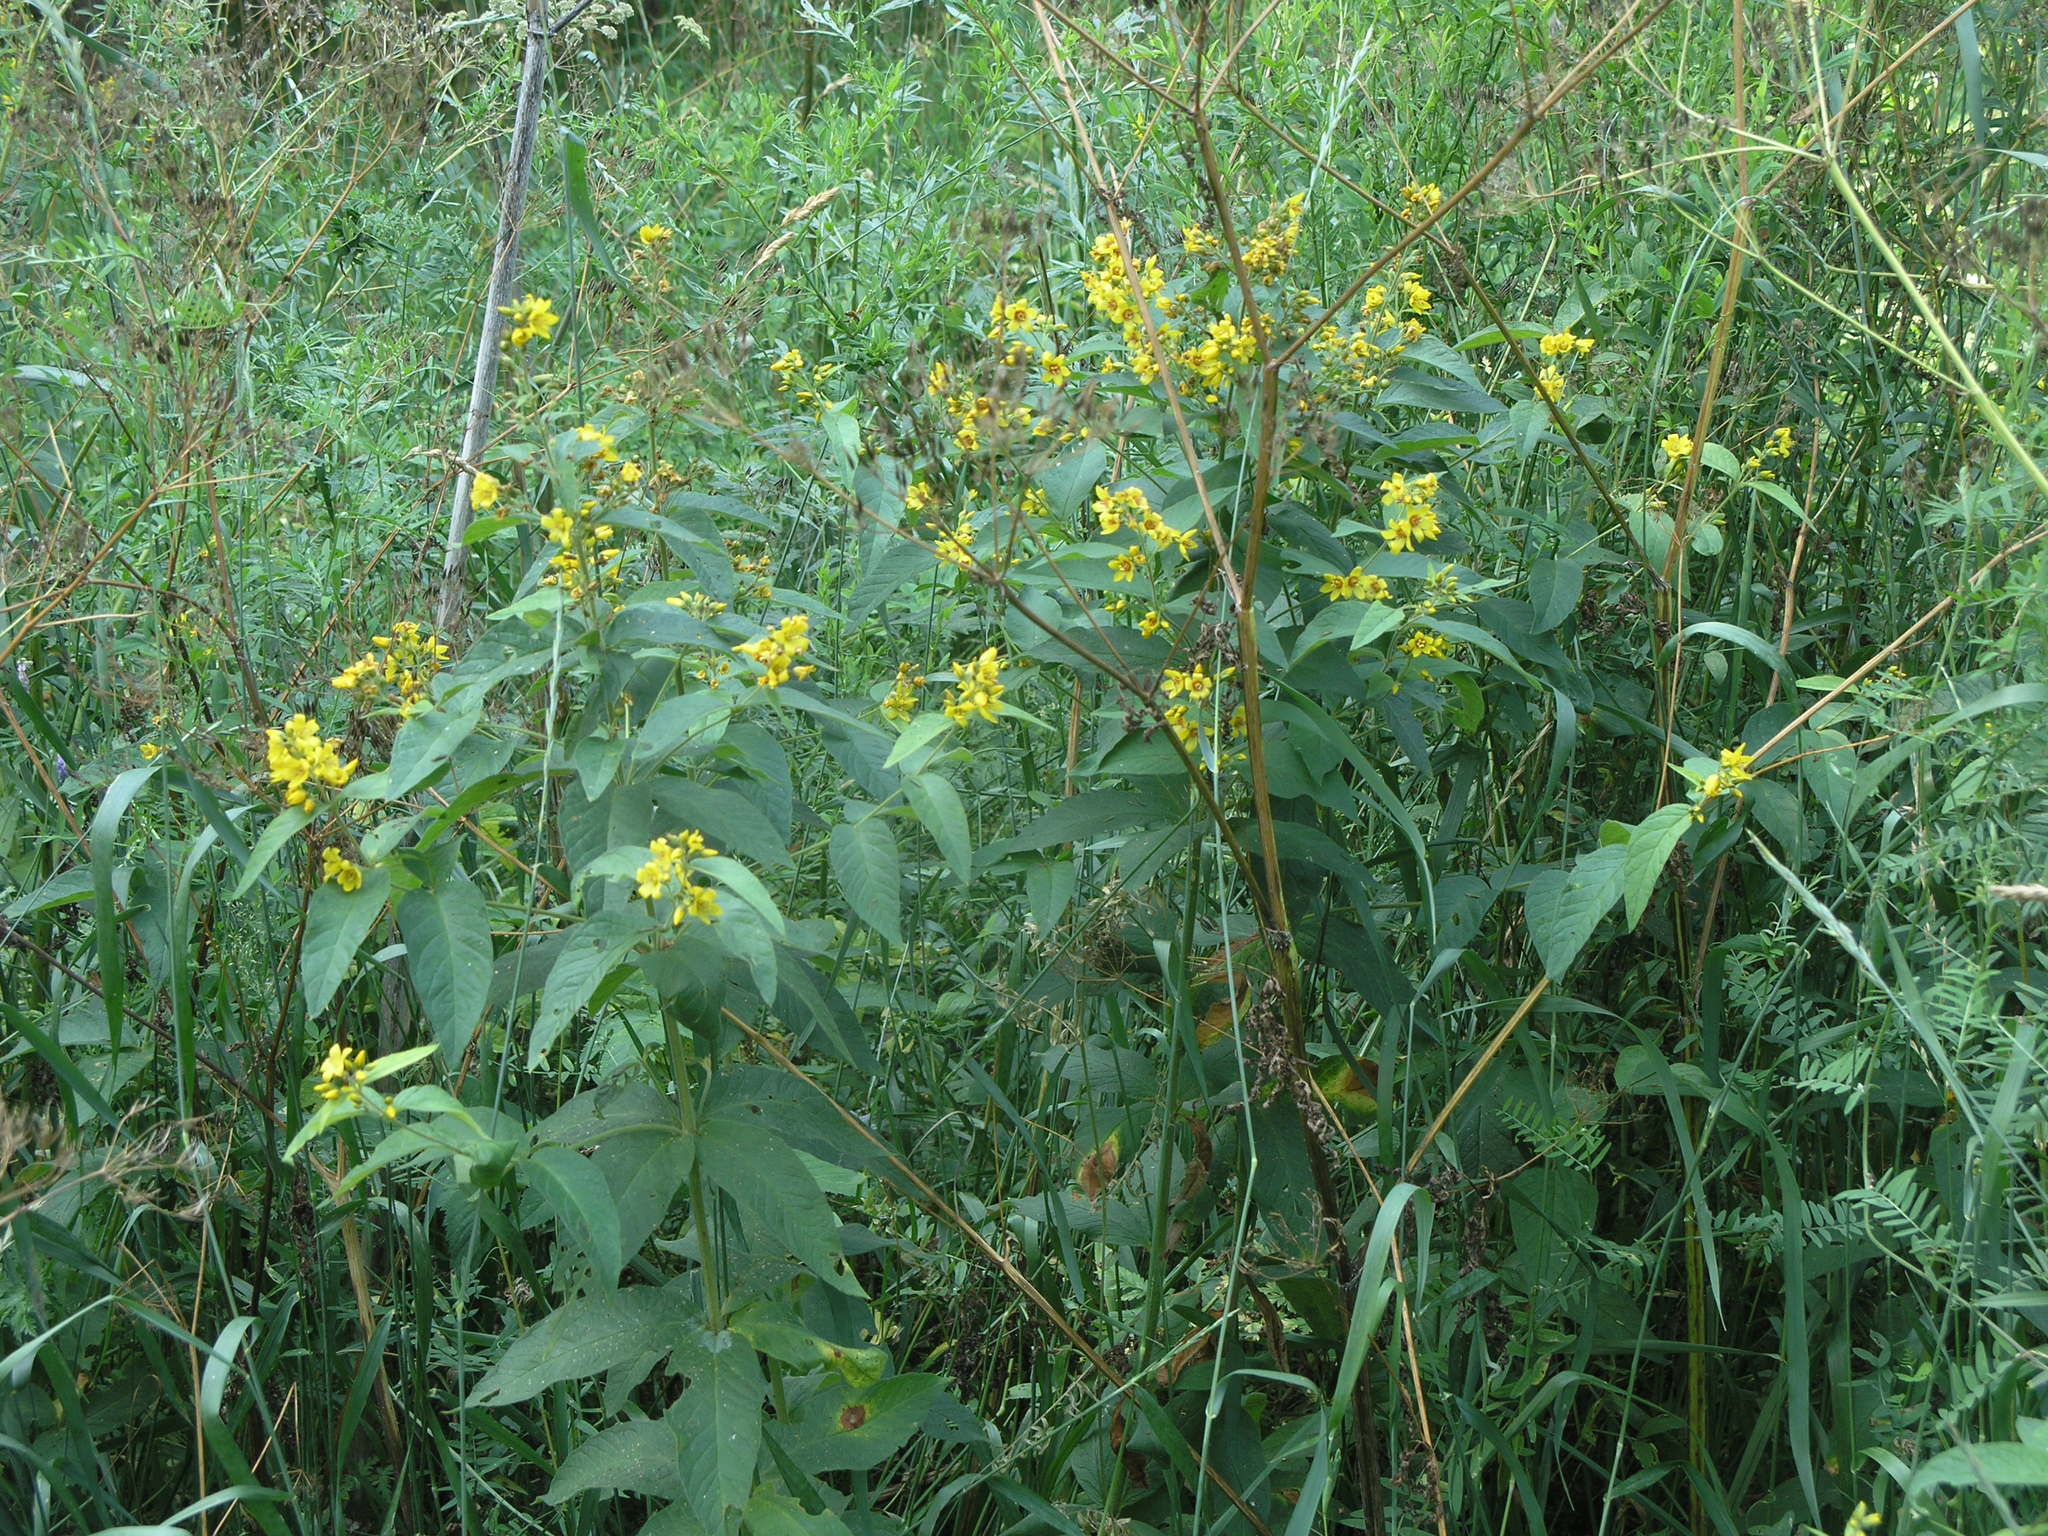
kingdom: Plantae
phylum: Tracheophyta
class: Magnoliopsida
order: Ericales
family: Primulaceae
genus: Lysimachia
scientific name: Lysimachia vulgaris
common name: Yellow loosestrife
